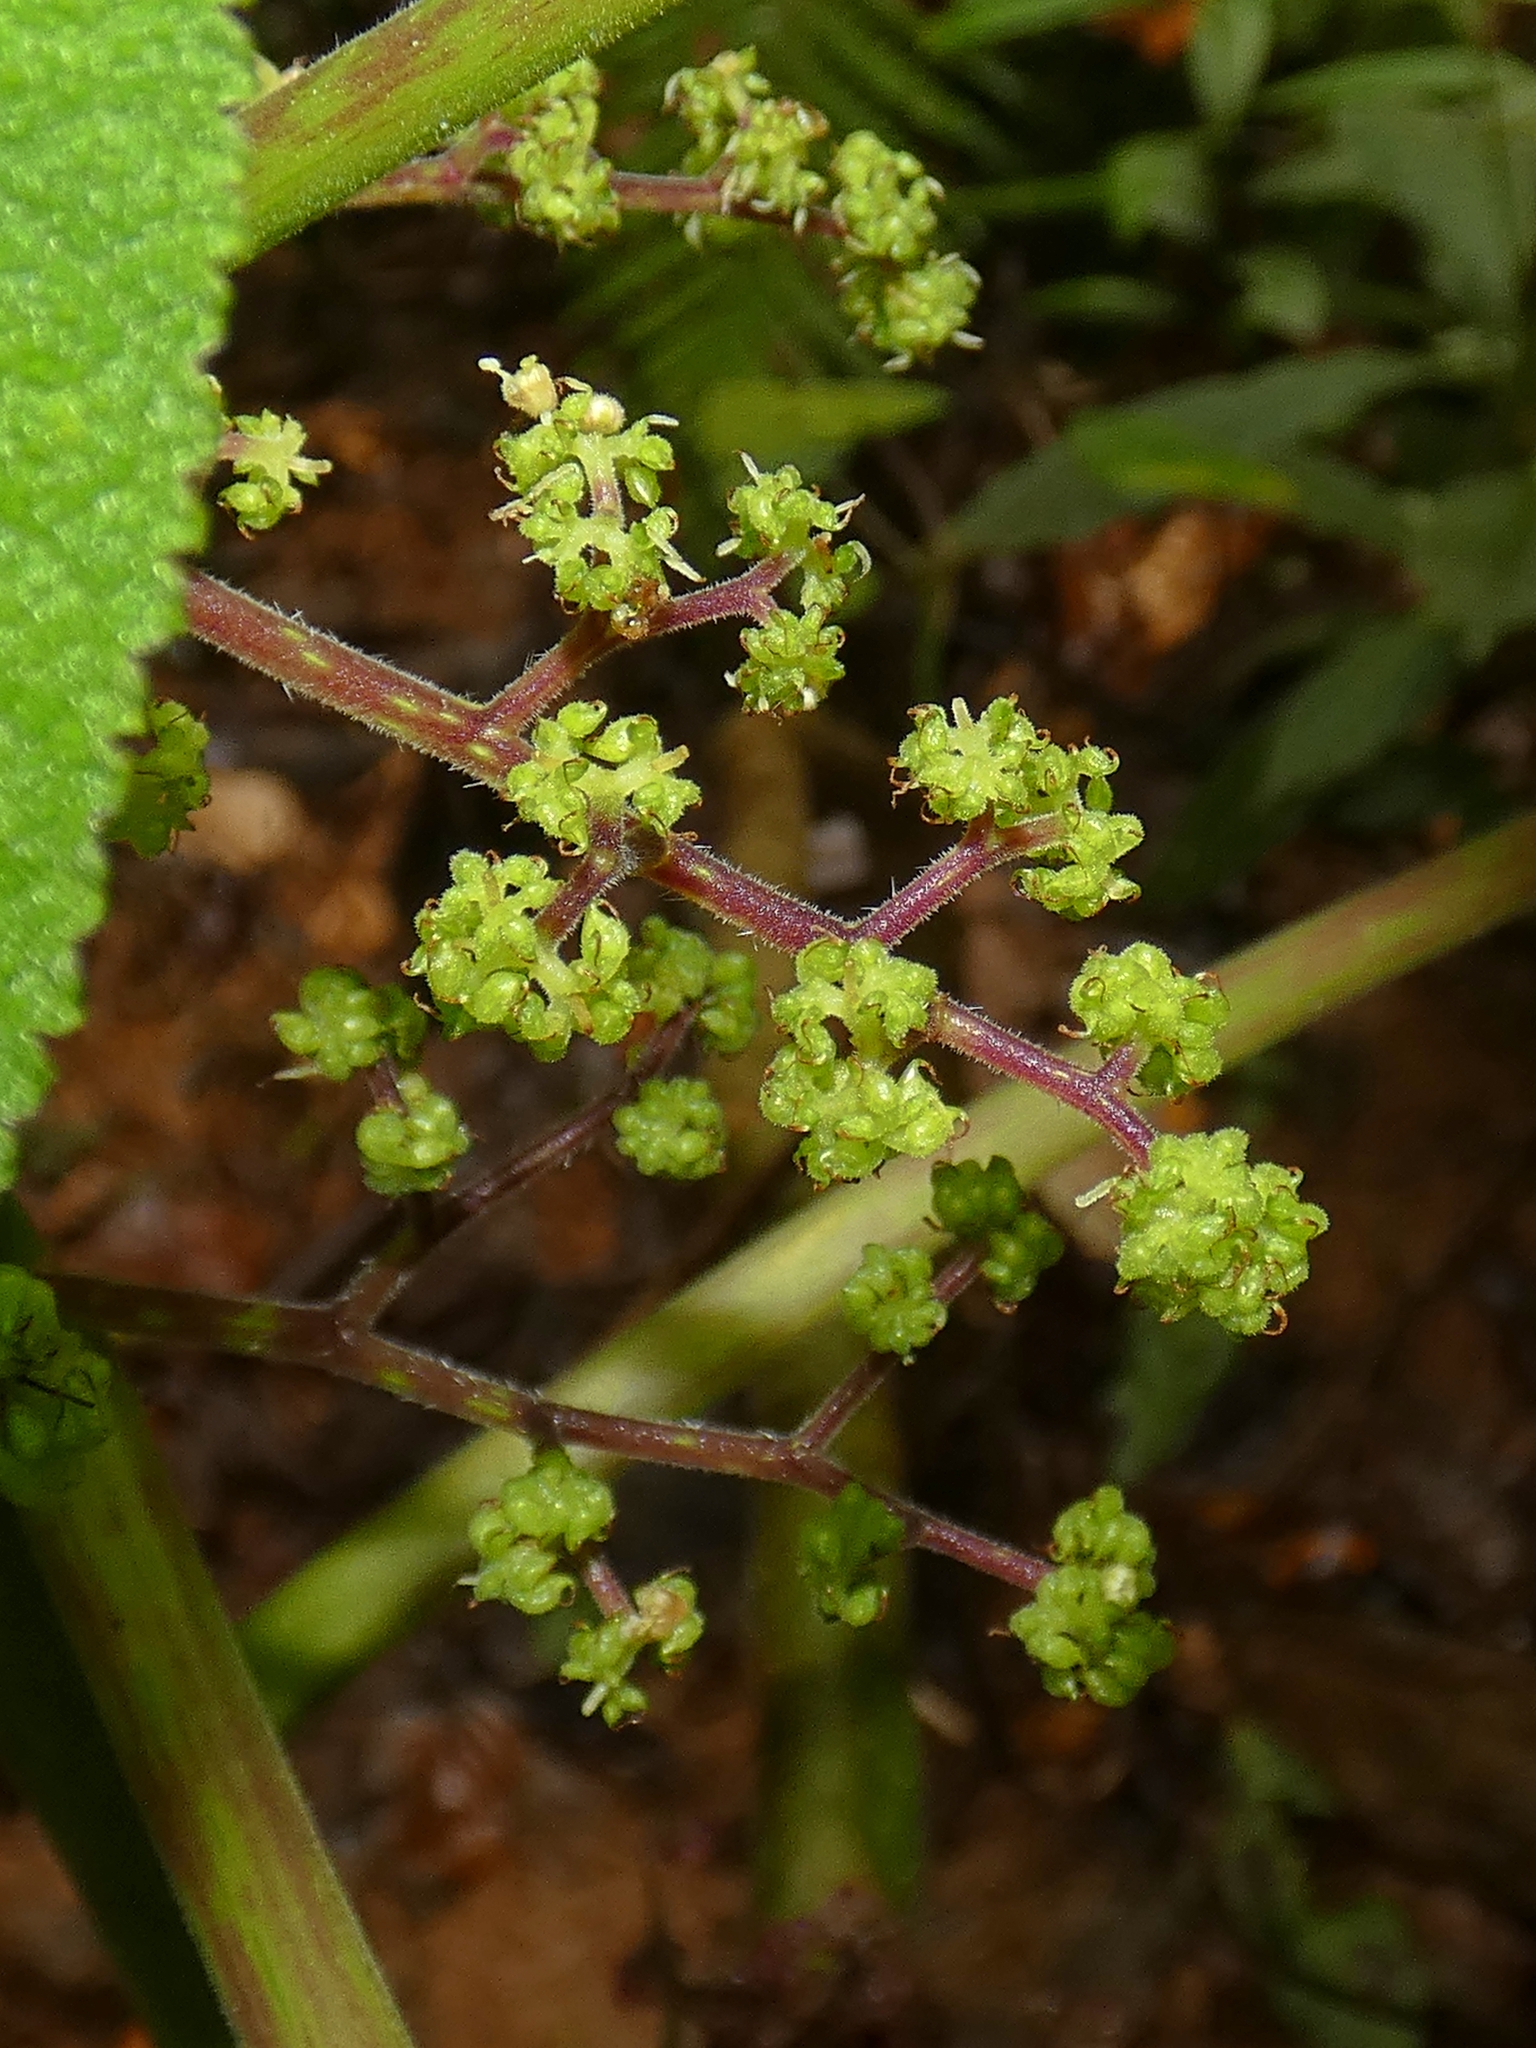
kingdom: Plantae
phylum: Tracheophyta
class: Magnoliopsida
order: Rosales
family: Urticaceae
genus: Dendrocnide
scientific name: Dendrocnide moroides
